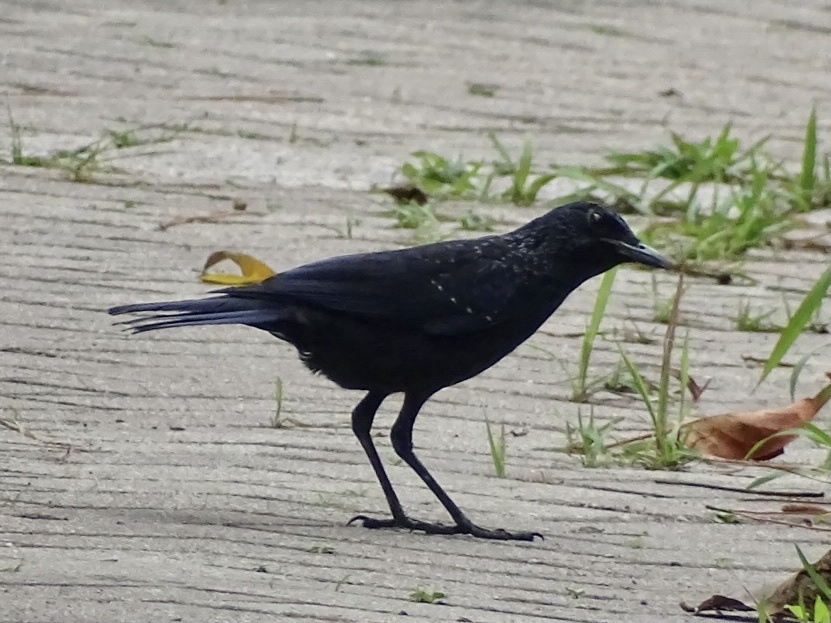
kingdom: Animalia
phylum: Chordata
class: Aves
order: Passeriformes
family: Muscicapidae
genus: Myophonus
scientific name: Myophonus caeruleus
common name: Blue whistling-thrush
